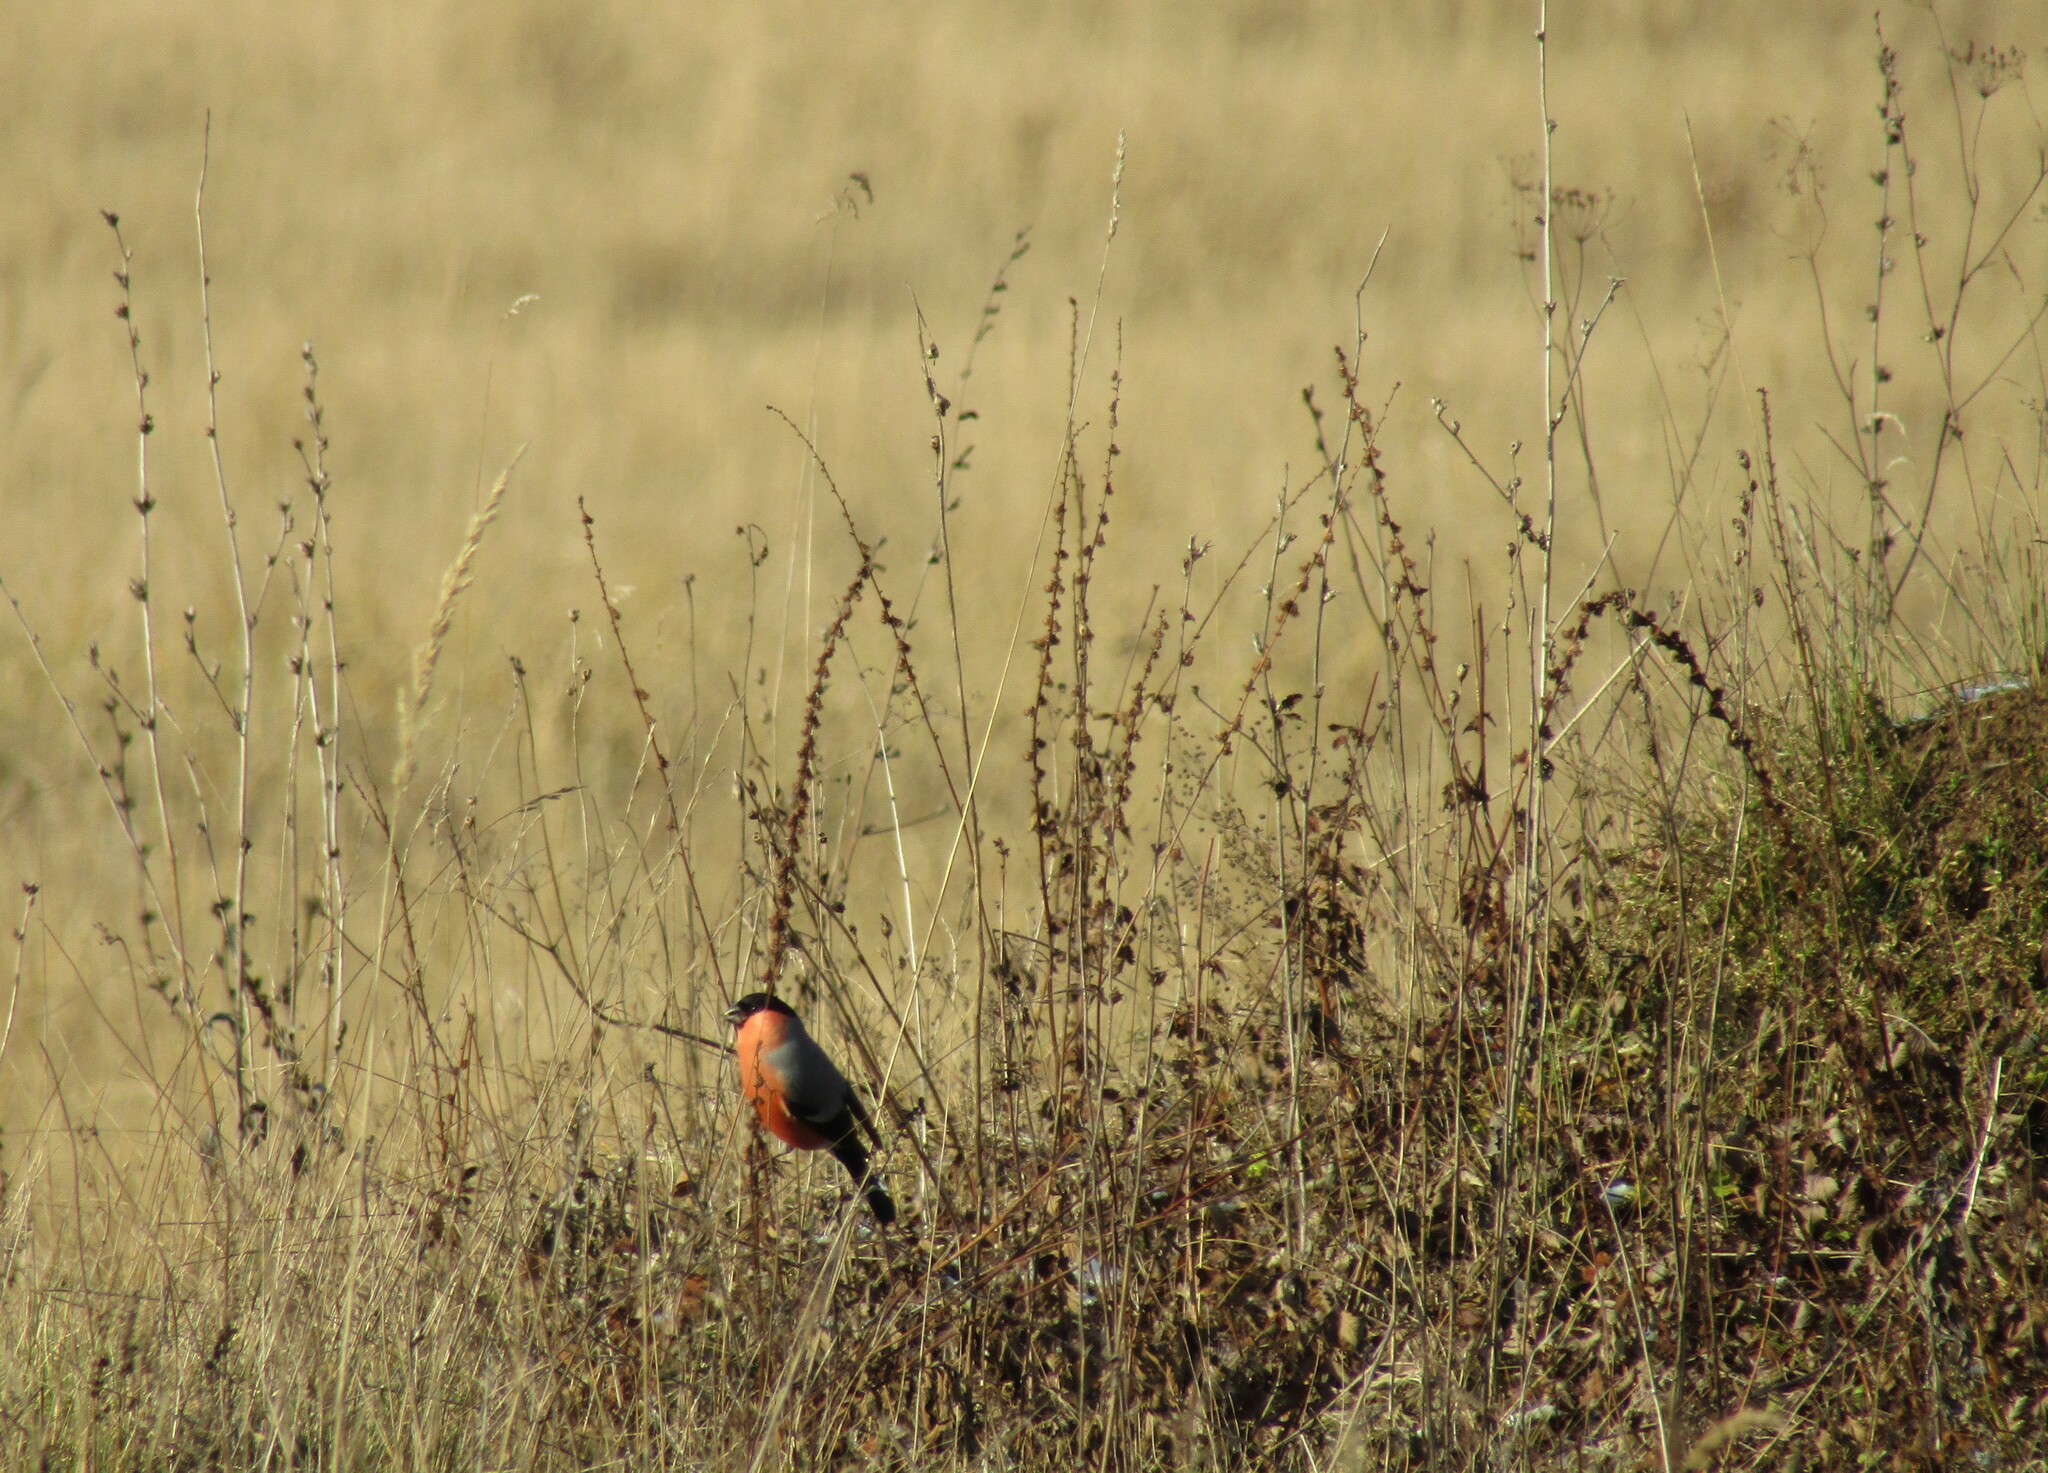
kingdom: Animalia
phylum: Chordata
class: Aves
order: Passeriformes
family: Fringillidae
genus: Pyrrhula
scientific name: Pyrrhula pyrrhula
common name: Eurasian bullfinch
